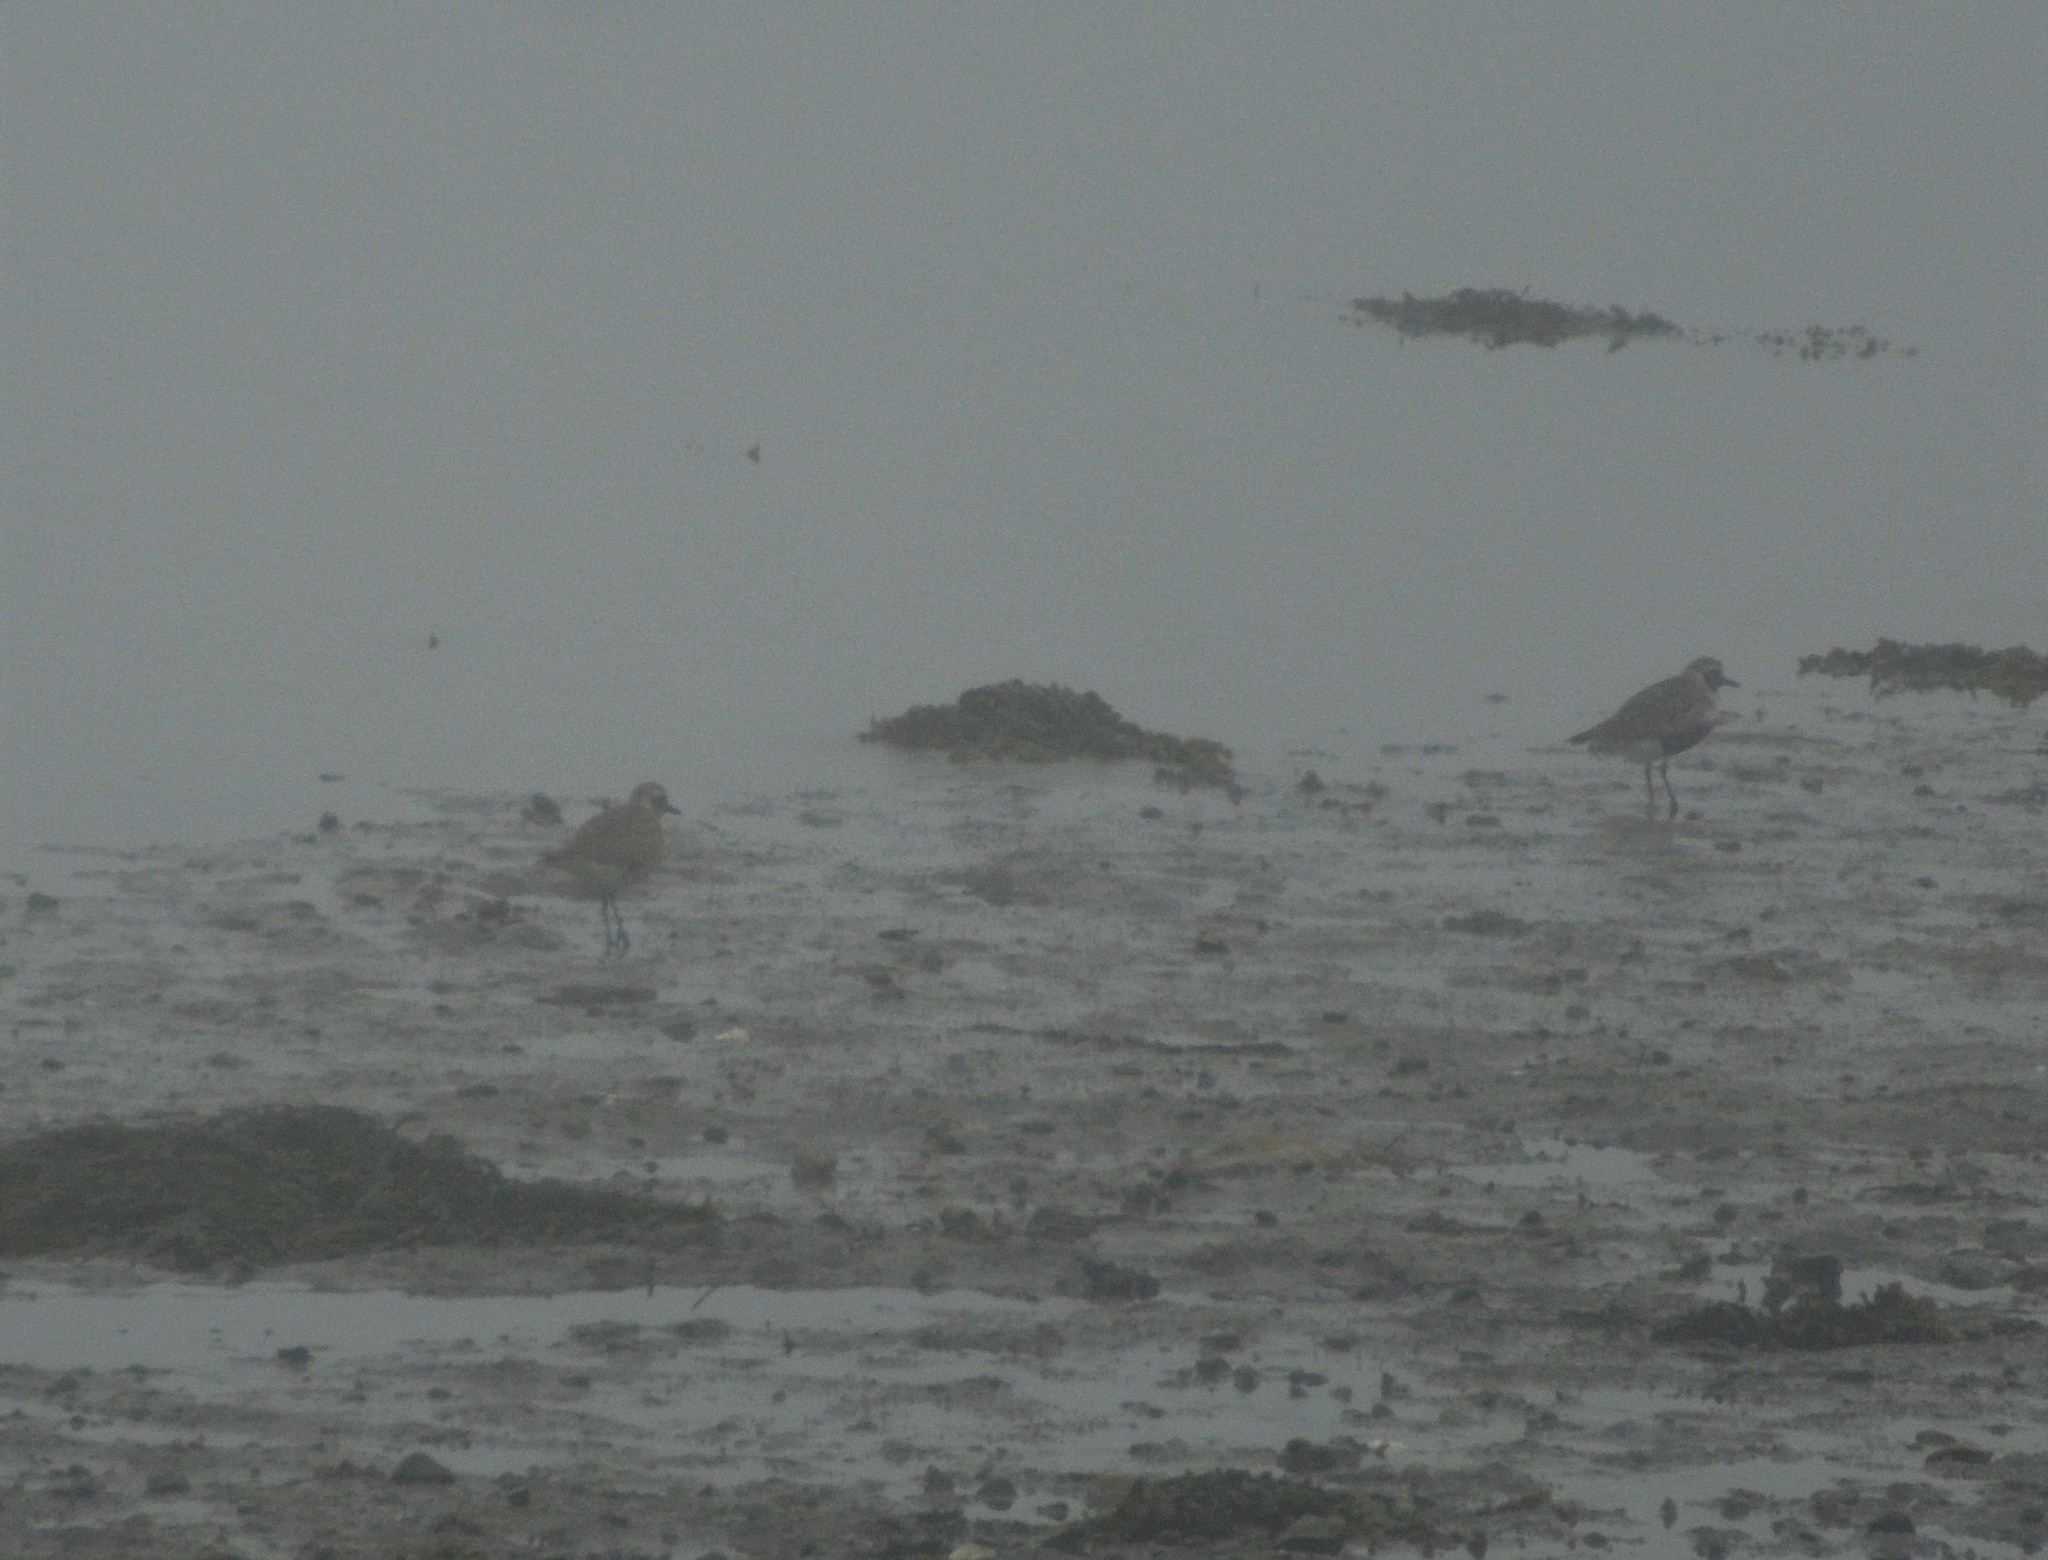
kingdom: Animalia
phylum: Chordata
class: Aves
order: Charadriiformes
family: Charadriidae
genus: Pluvialis
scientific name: Pluvialis squatarola
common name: Grey plover
